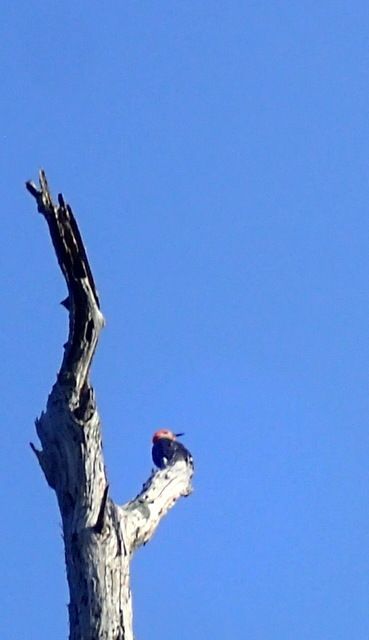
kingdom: Animalia
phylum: Chordata
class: Aves
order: Piciformes
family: Picidae
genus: Melanerpes
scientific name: Melanerpes carolinus
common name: Red-bellied woodpecker
